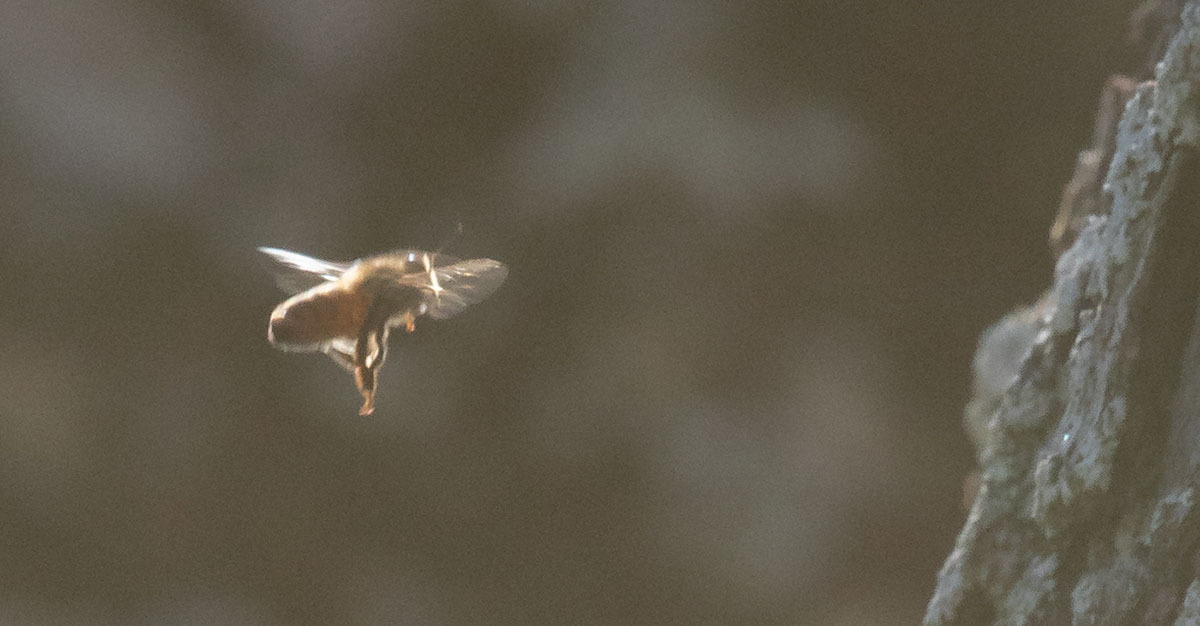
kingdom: Animalia
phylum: Arthropoda
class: Insecta
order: Hymenoptera
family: Apidae
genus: Apis
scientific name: Apis mellifera
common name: Honey bee
